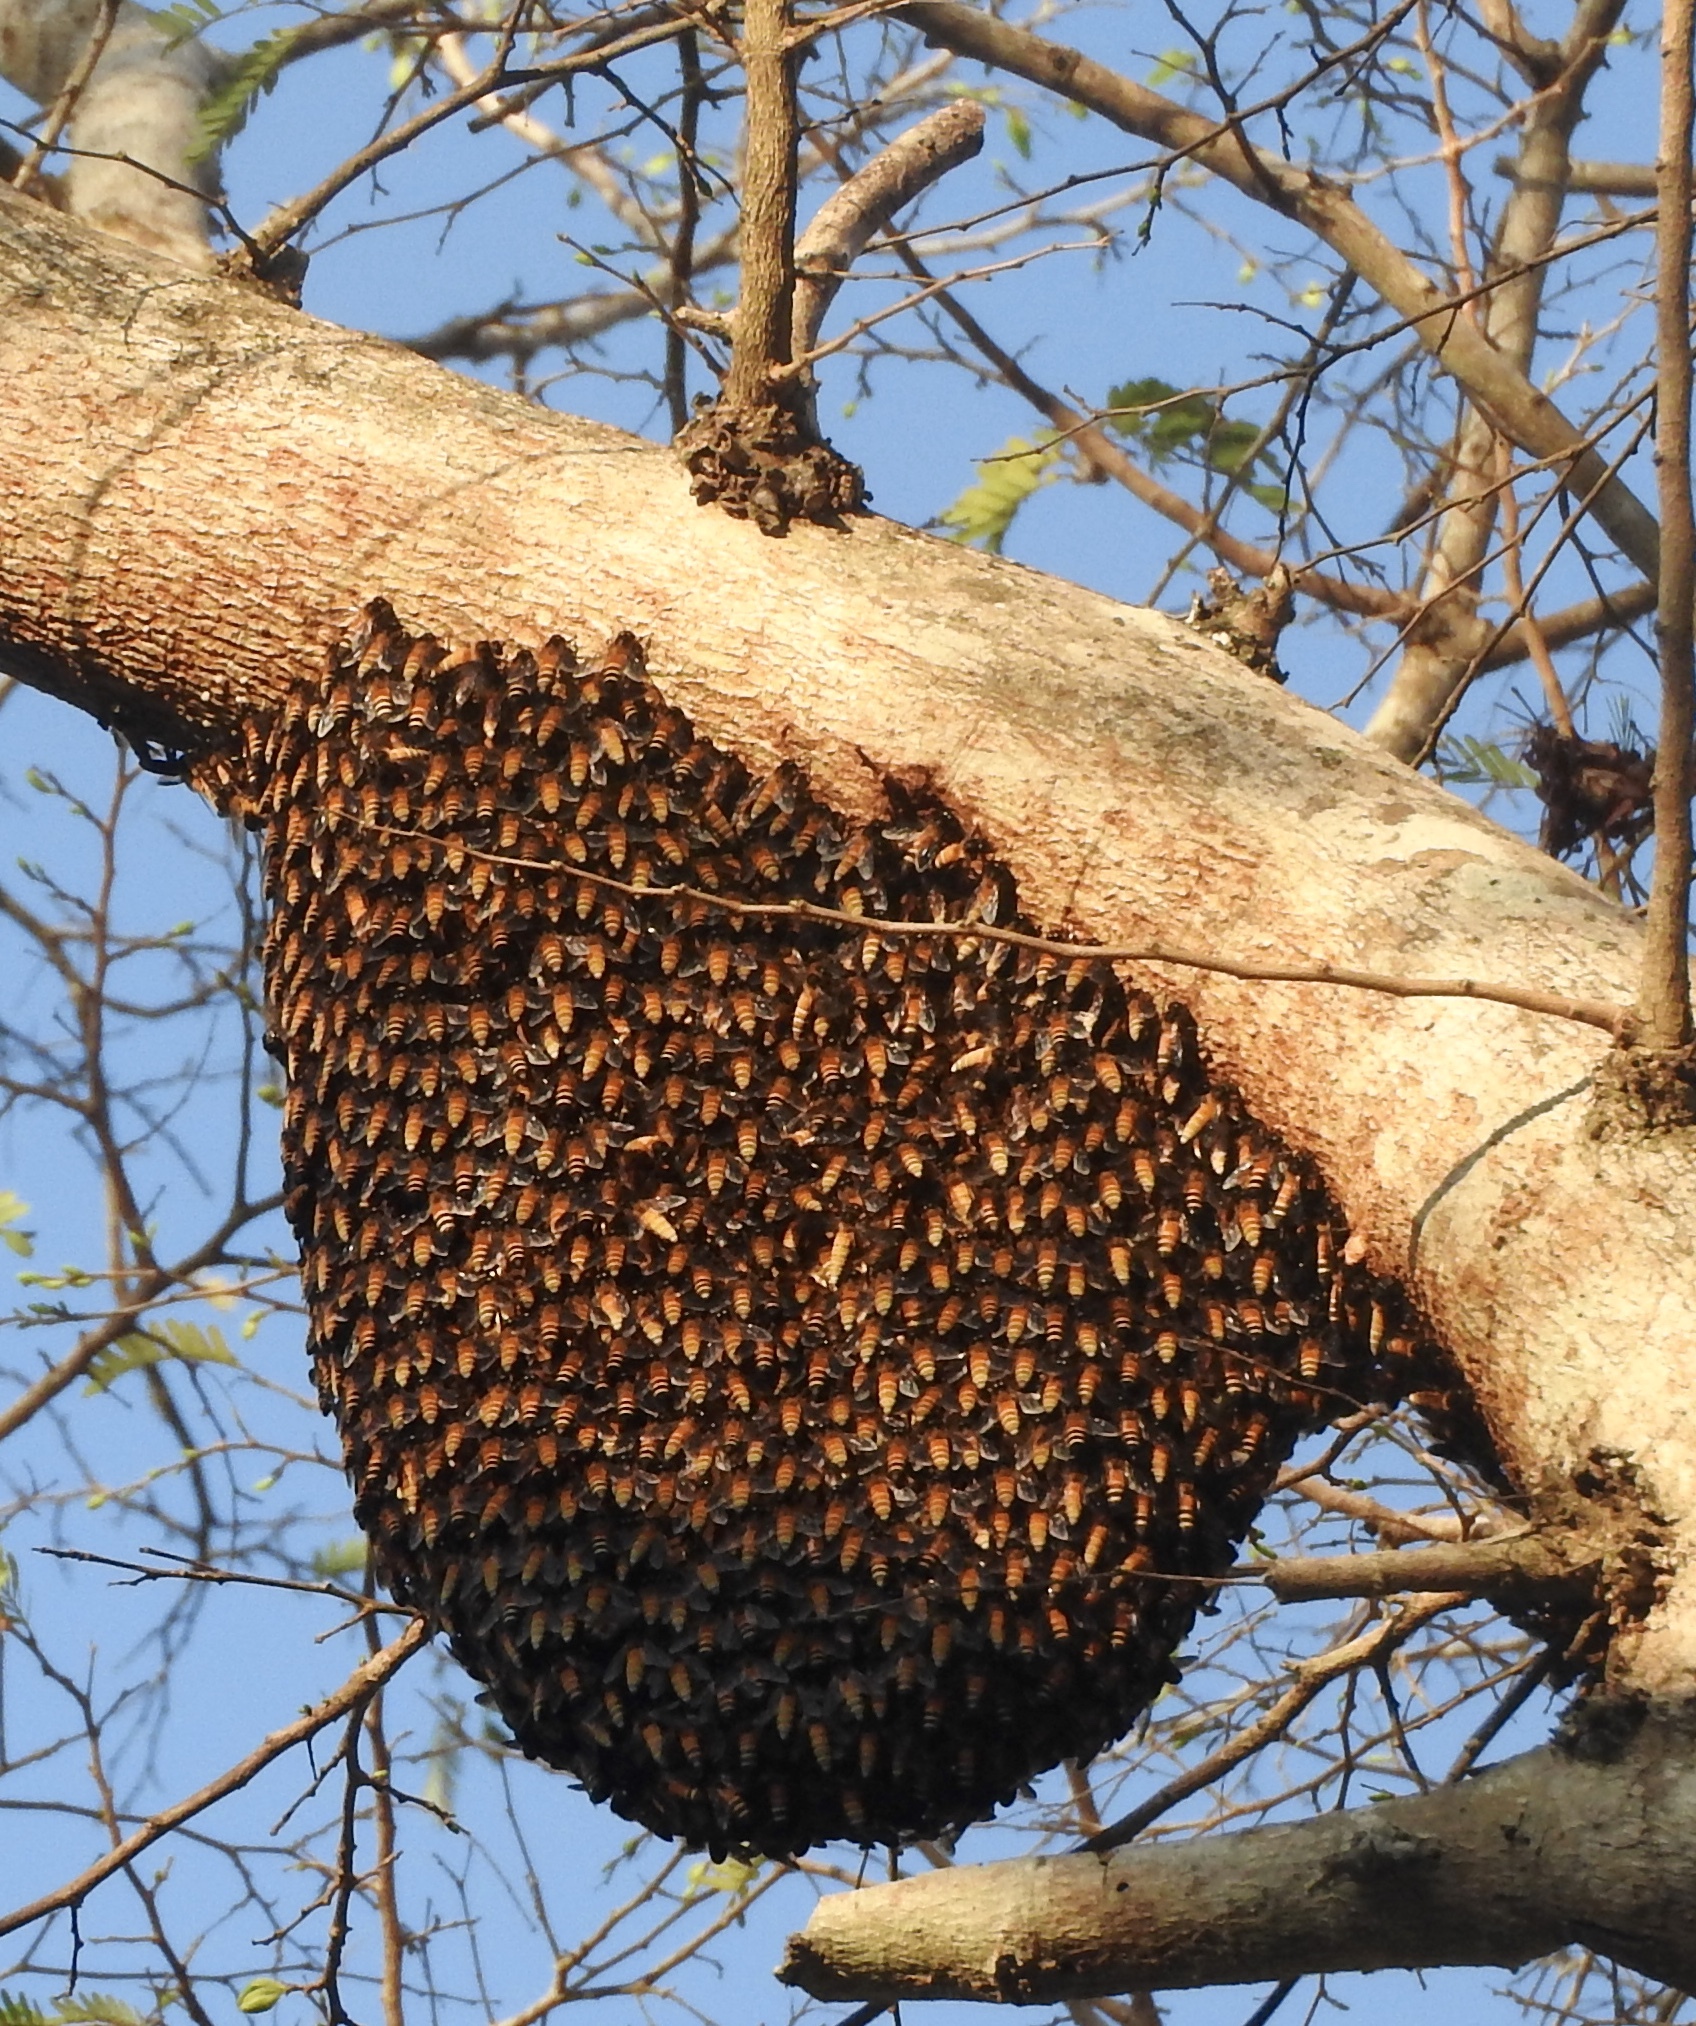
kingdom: Animalia
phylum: Arthropoda
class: Insecta
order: Hymenoptera
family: Apidae
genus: Apis
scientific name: Apis dorsata
